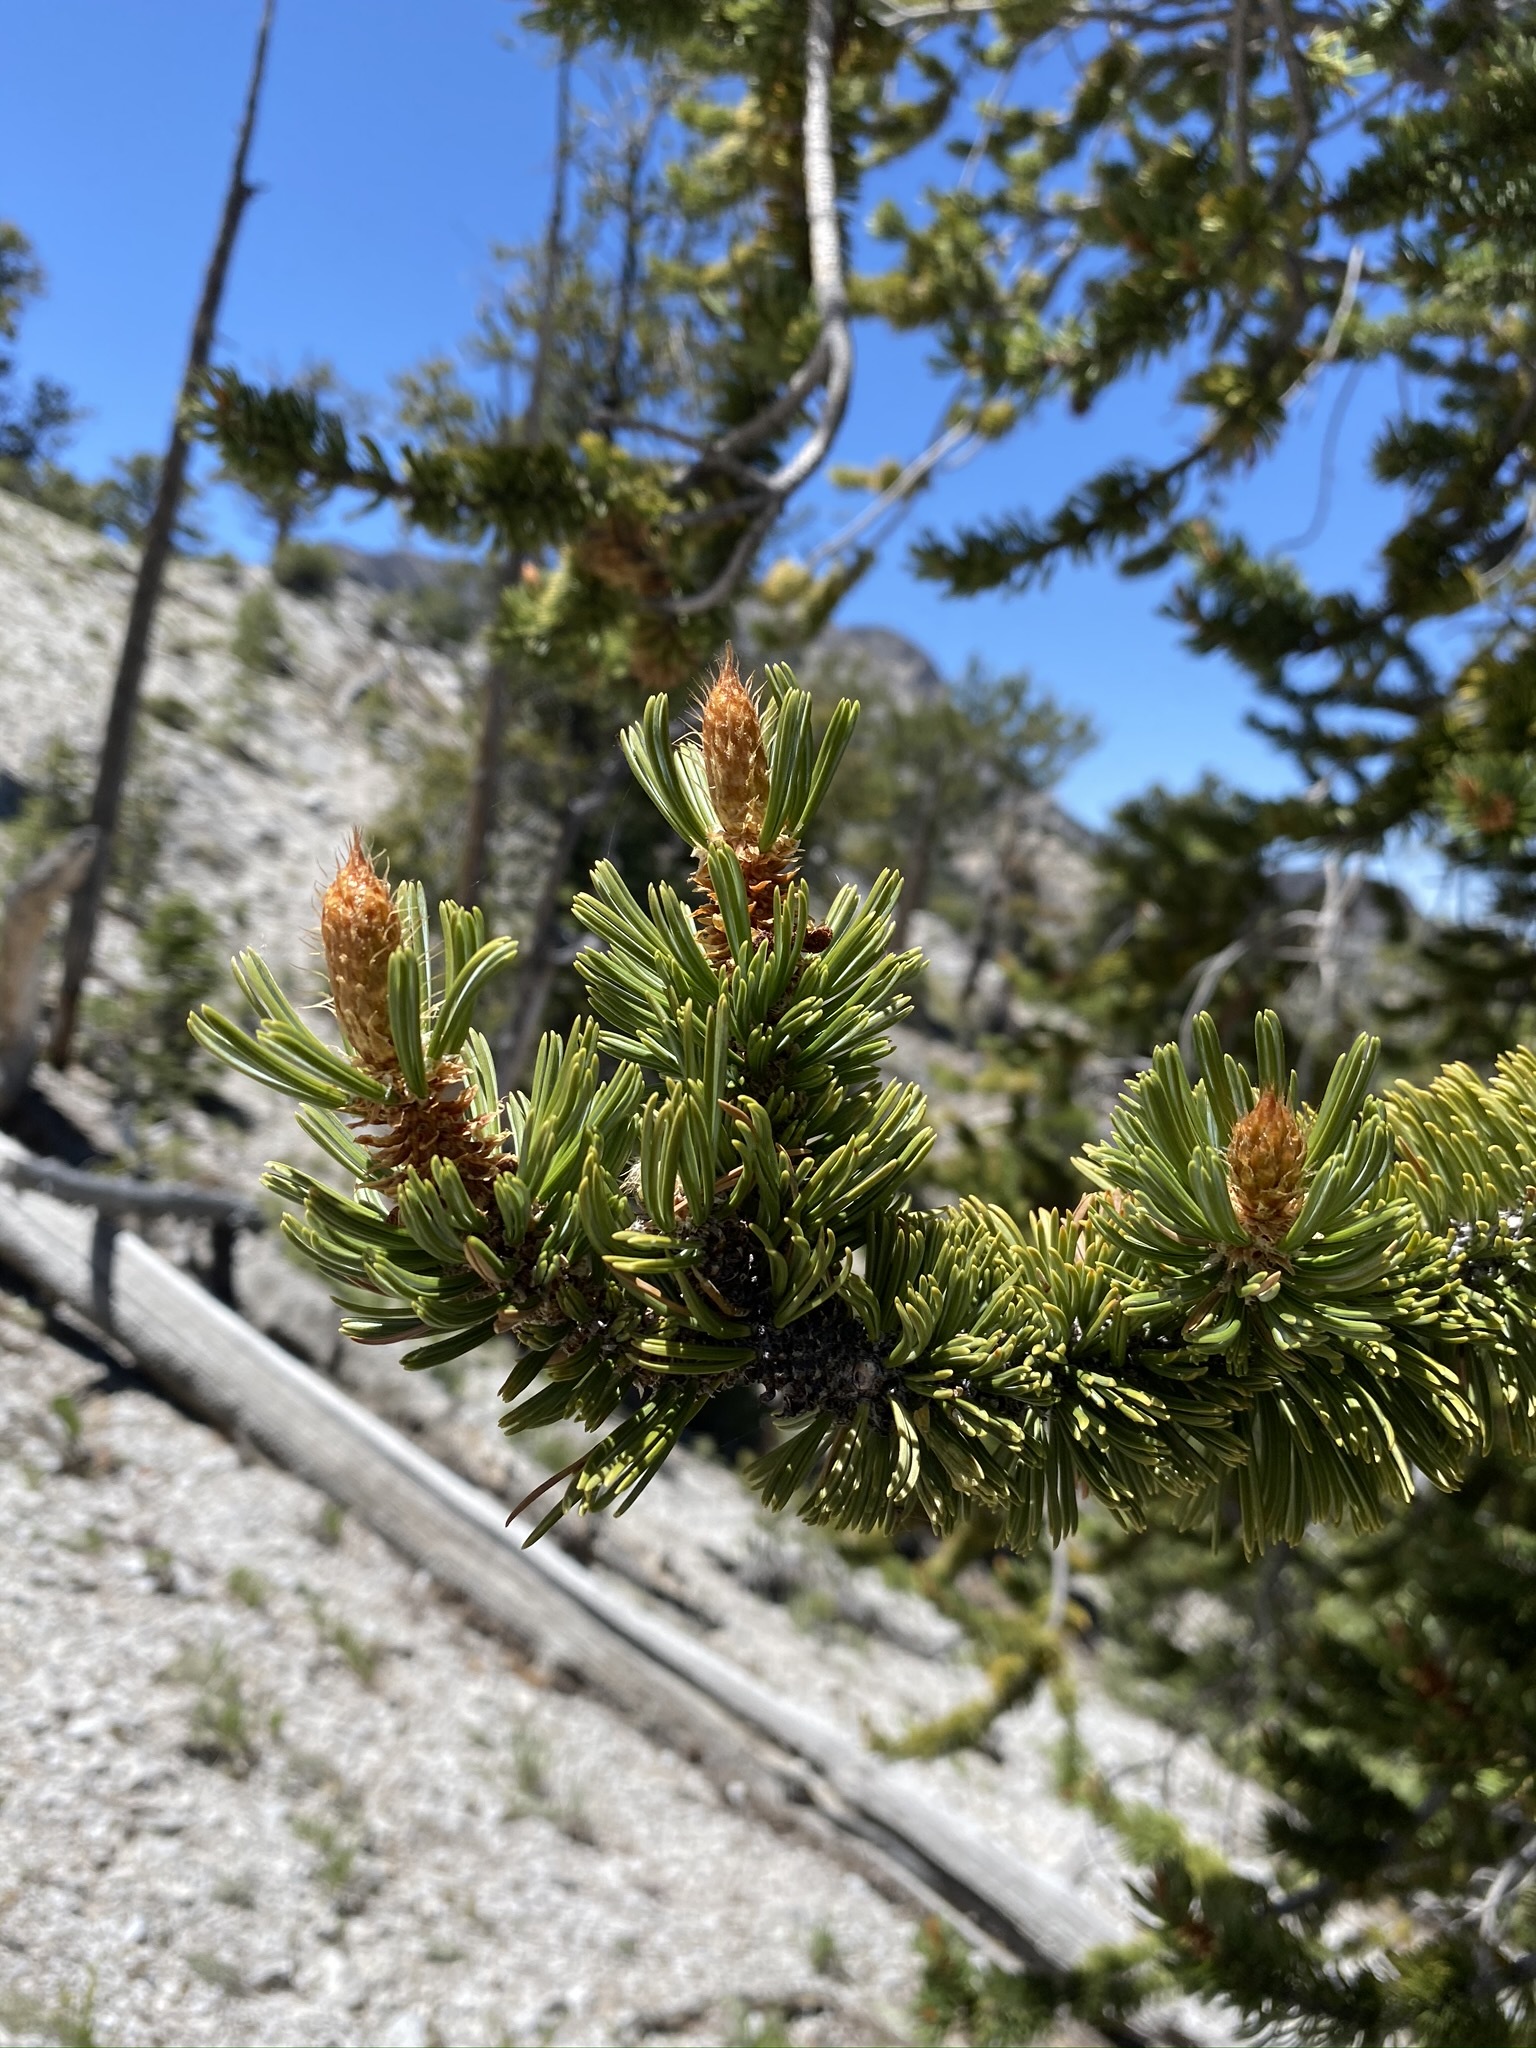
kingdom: Plantae
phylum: Tracheophyta
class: Pinopsida
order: Pinales
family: Pinaceae
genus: Pinus
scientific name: Pinus longaeva
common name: Intermountain bristlecone pine
